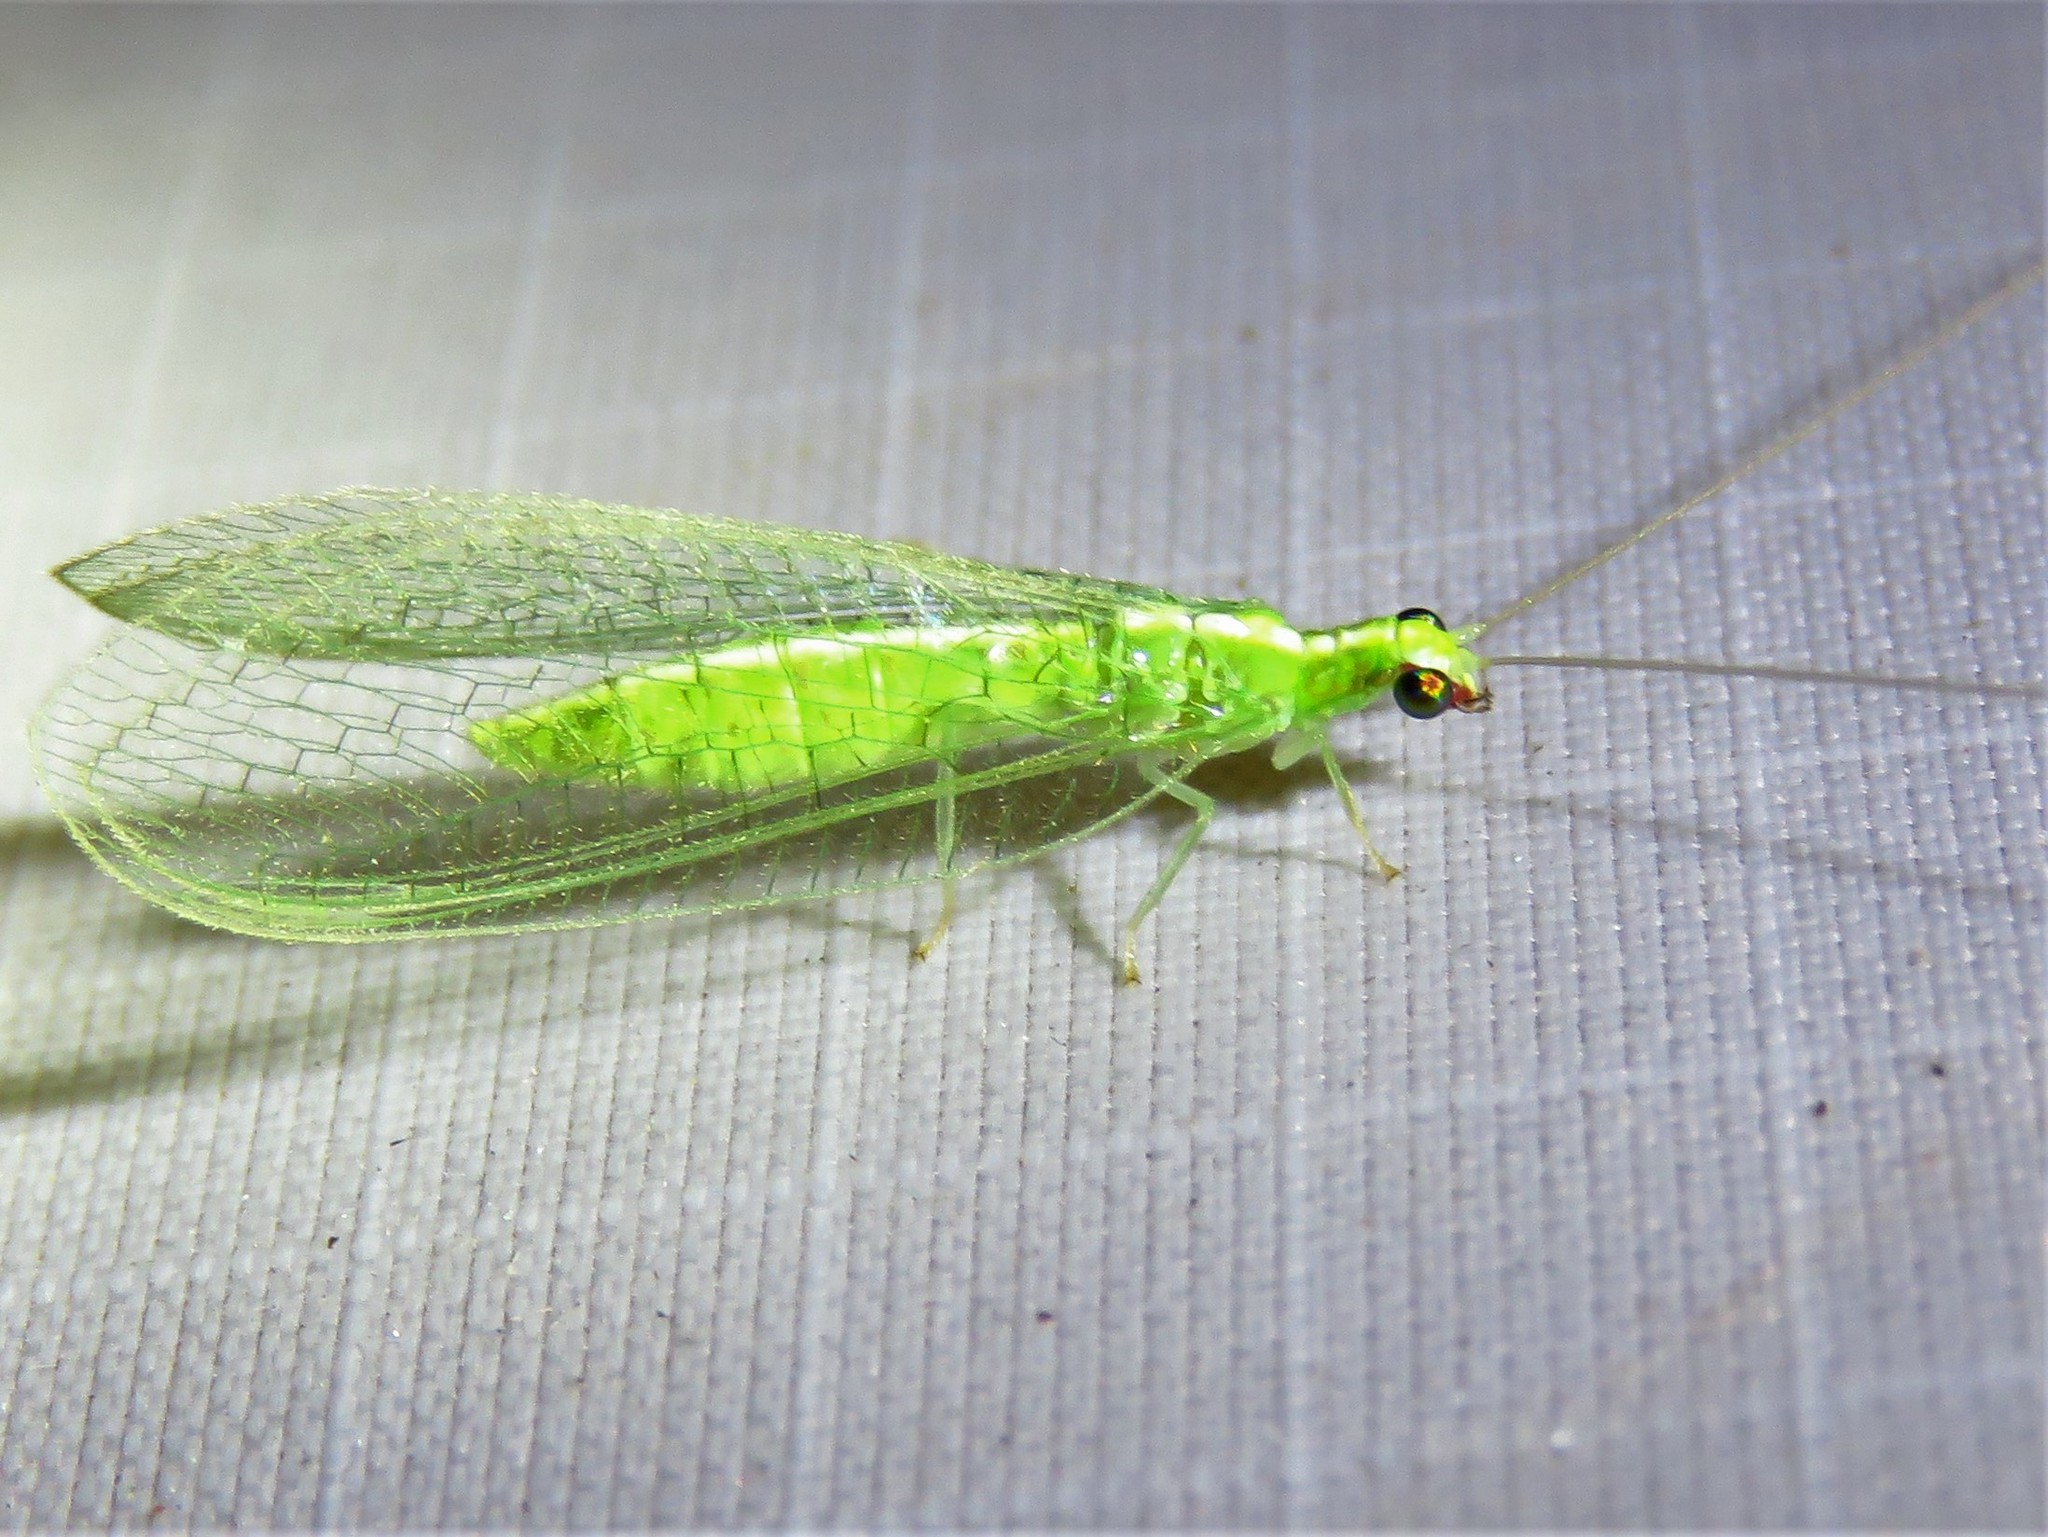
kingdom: Animalia
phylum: Arthropoda
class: Insecta
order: Neuroptera
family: Chrysopidae
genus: Chrysoperla
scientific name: Chrysoperla rufilabris
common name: Red-lipped green lacewing
